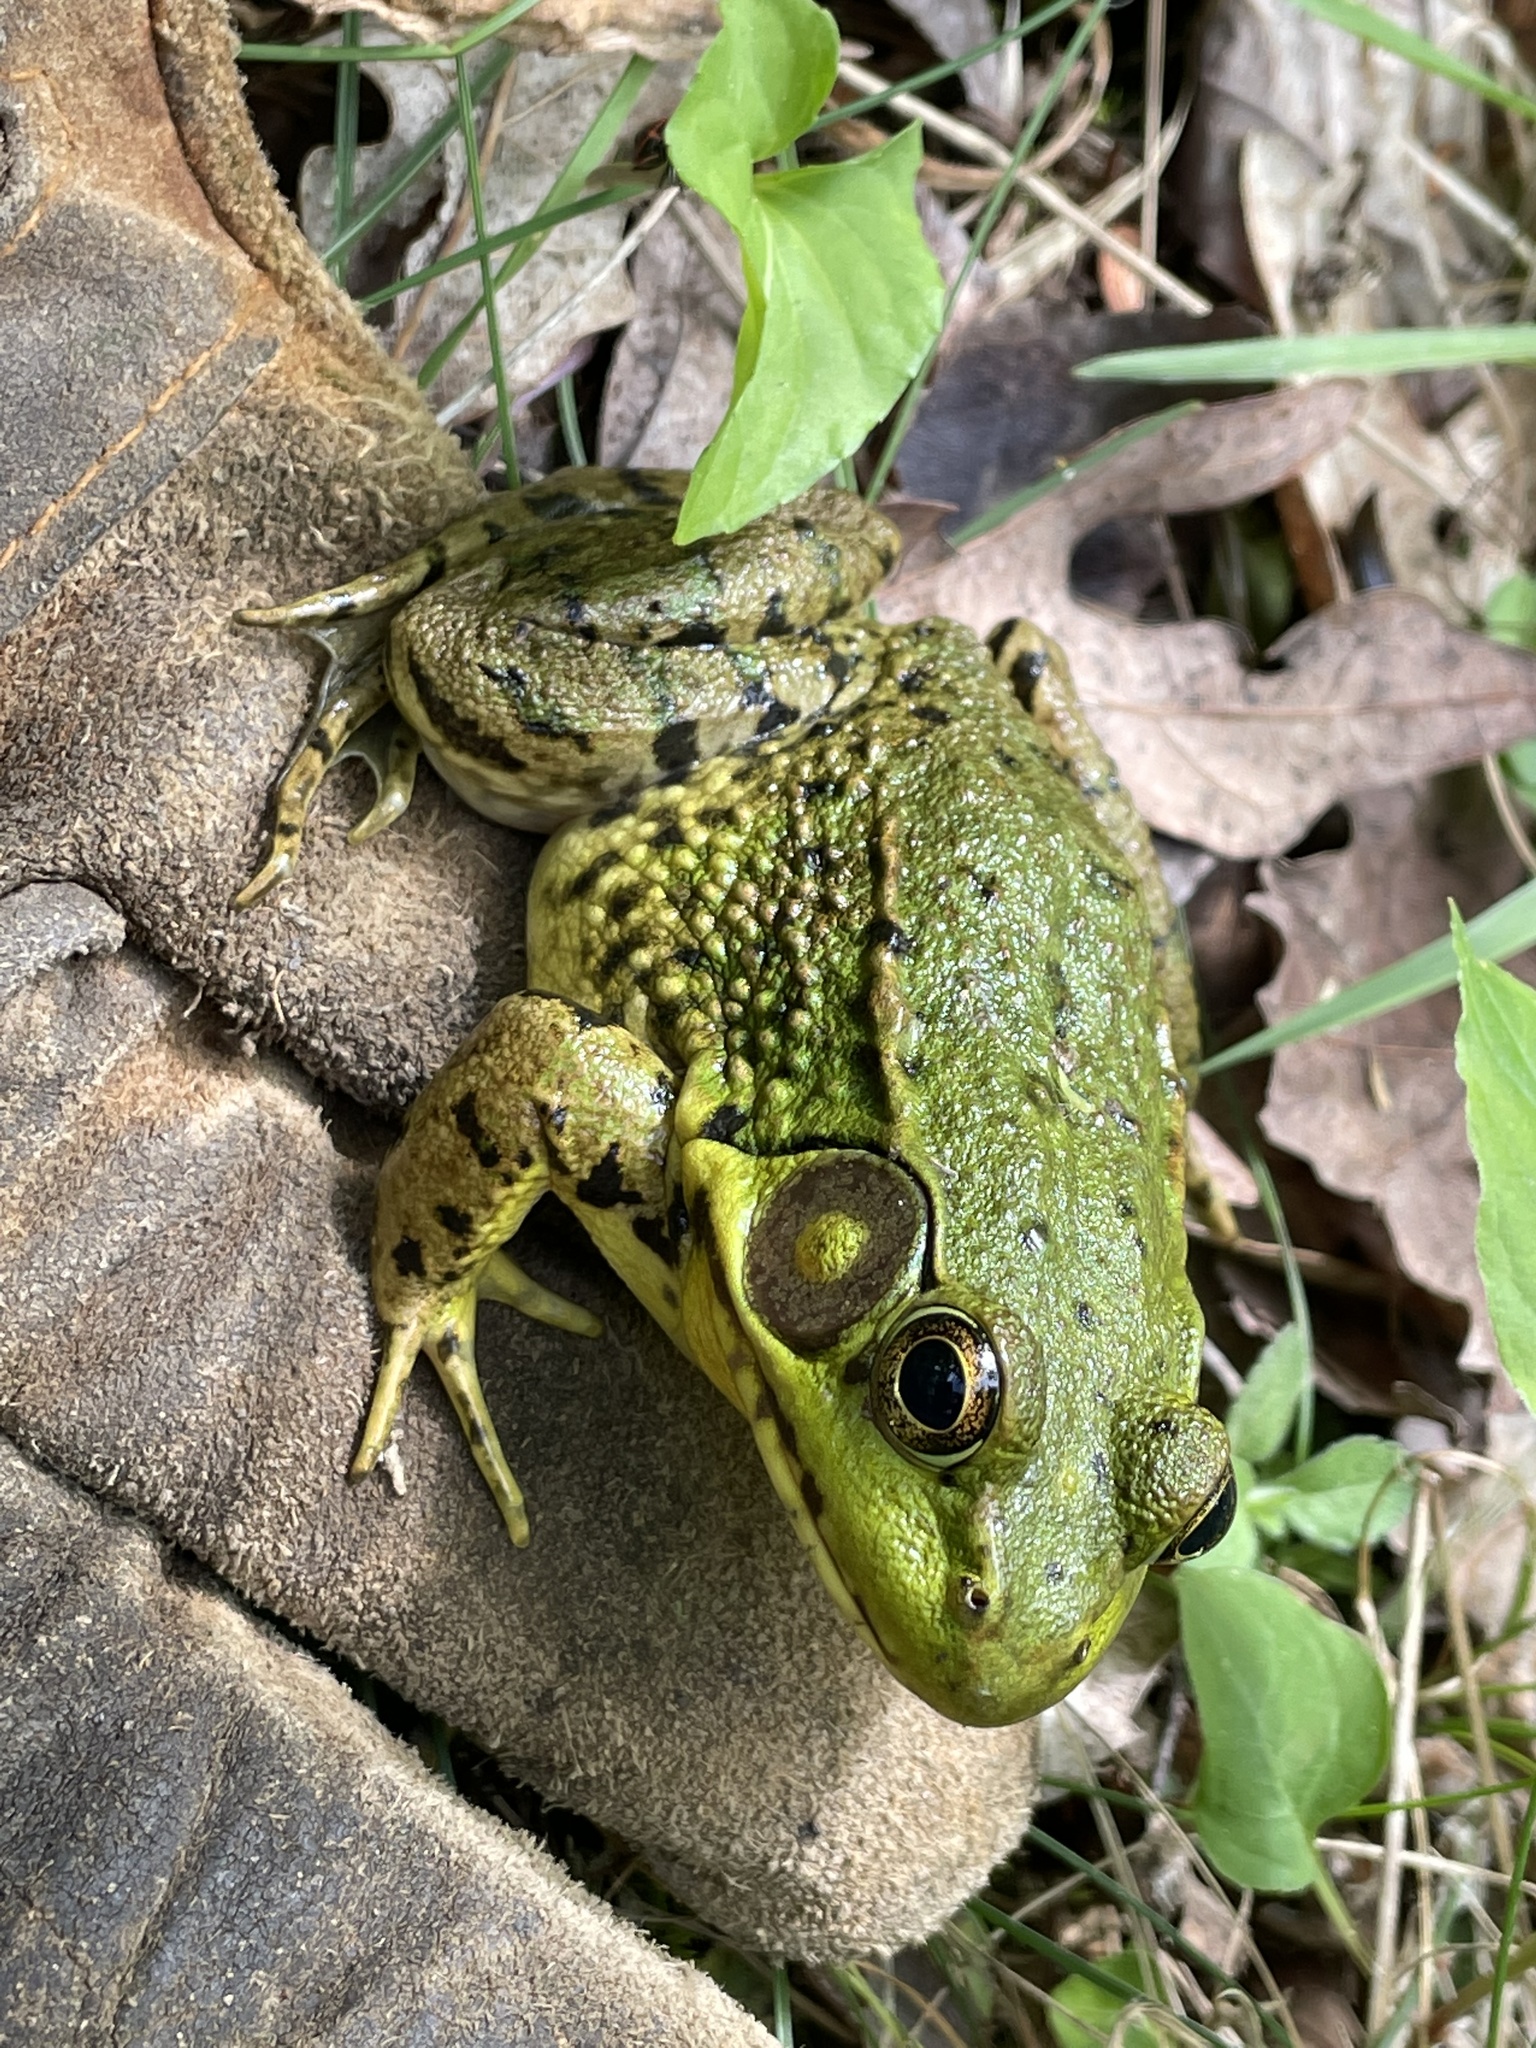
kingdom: Animalia
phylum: Chordata
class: Amphibia
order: Anura
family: Ranidae
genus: Lithobates
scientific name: Lithobates clamitans
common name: Green frog
